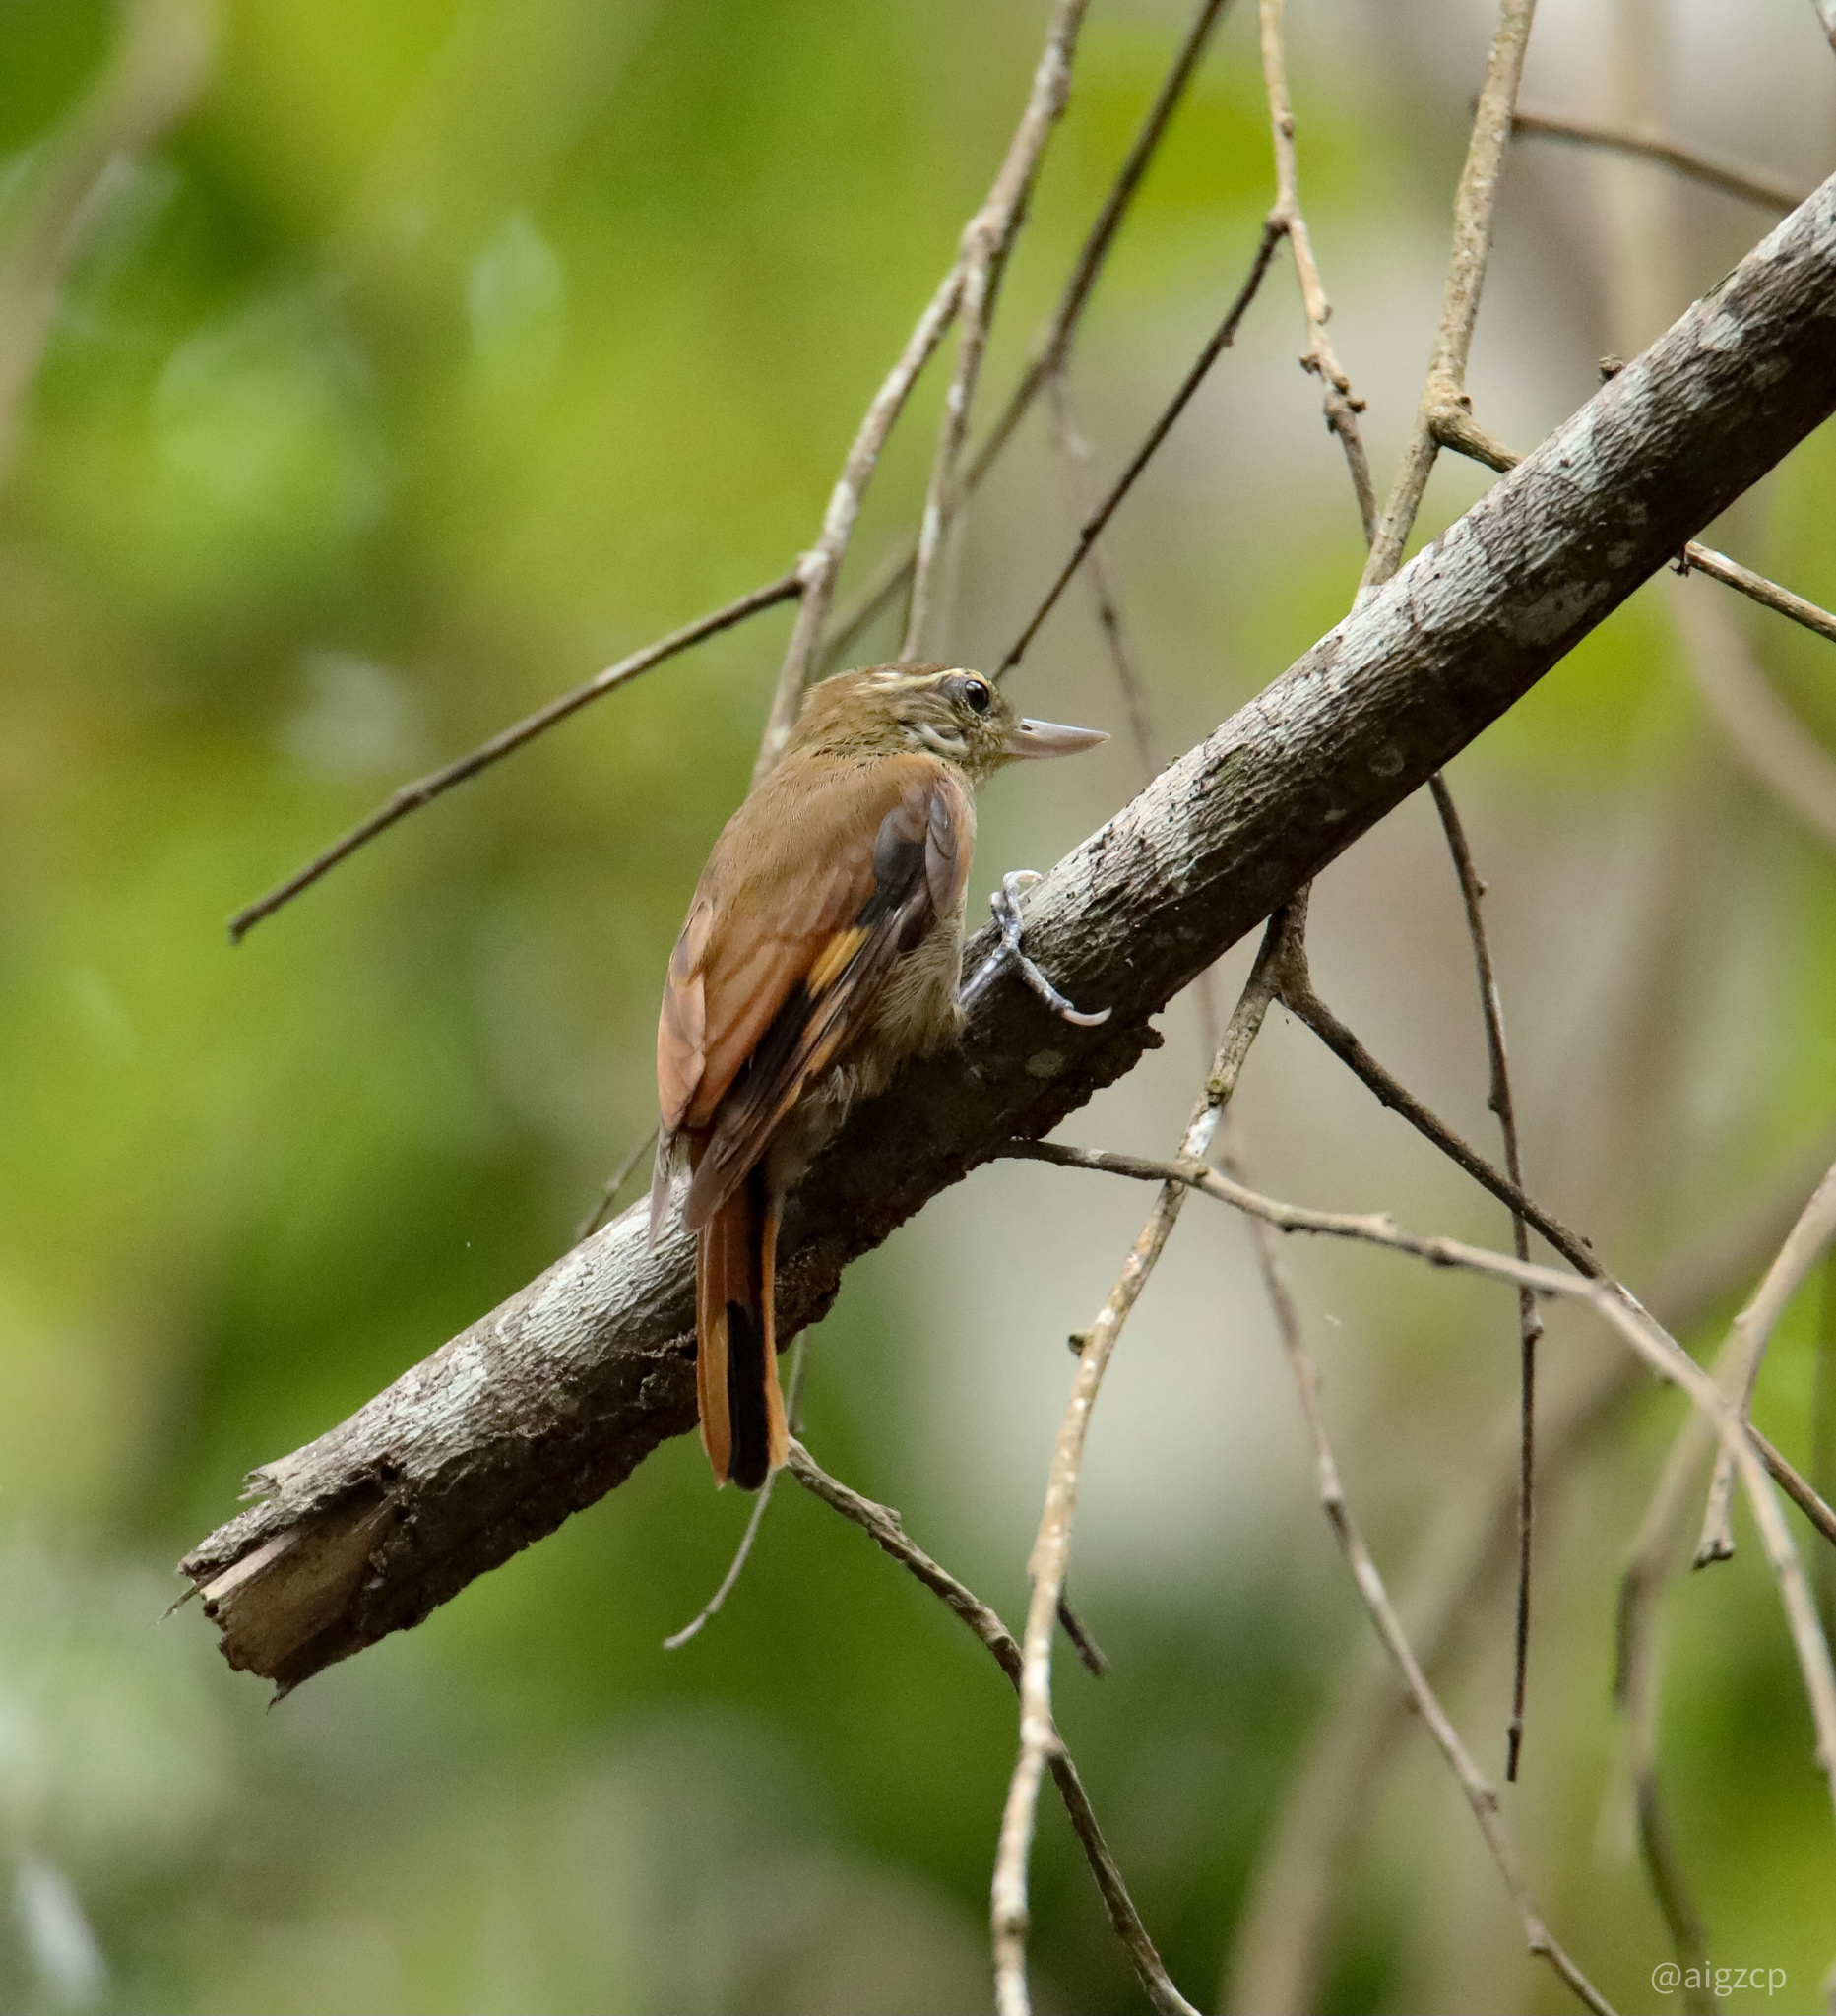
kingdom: Animalia
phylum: Chordata
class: Aves
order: Passeriformes
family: Furnariidae
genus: Xenops
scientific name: Xenops minutus
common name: Plain xenops
